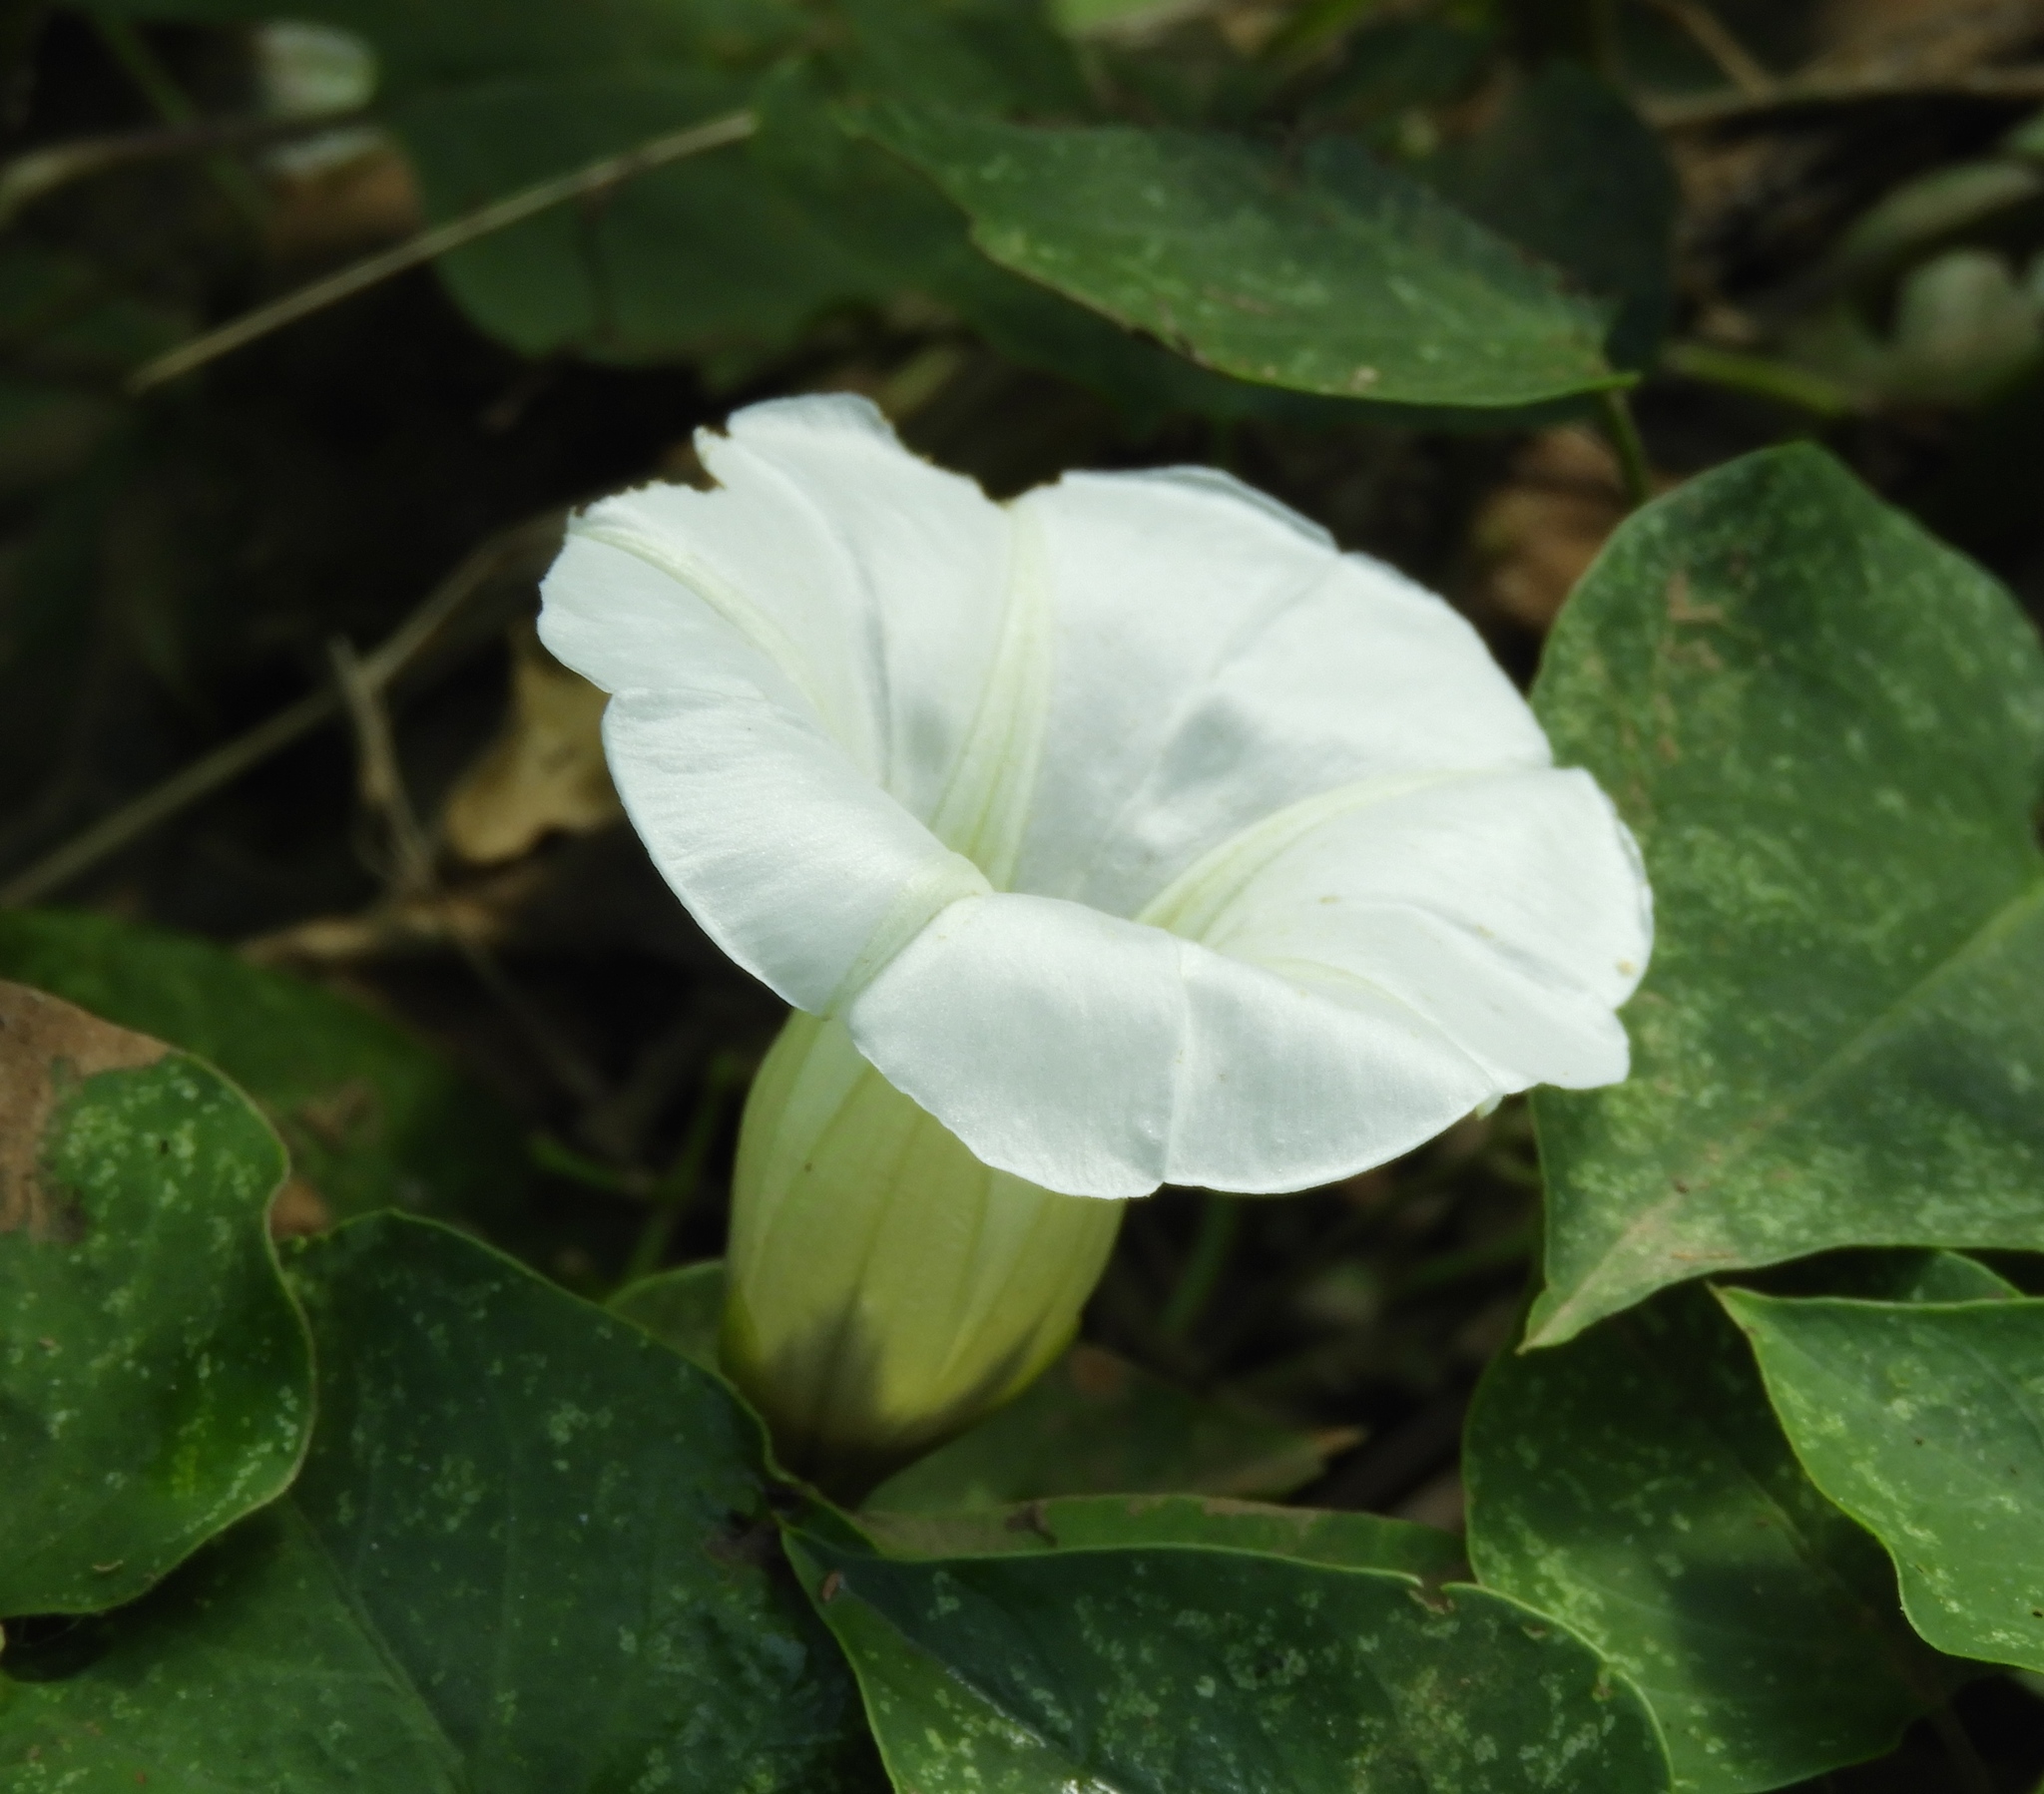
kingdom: Plantae
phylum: Tracheophyta
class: Magnoliopsida
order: Solanales
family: Convolvulaceae
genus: Ipomoea
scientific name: Ipomoea corymbosa
